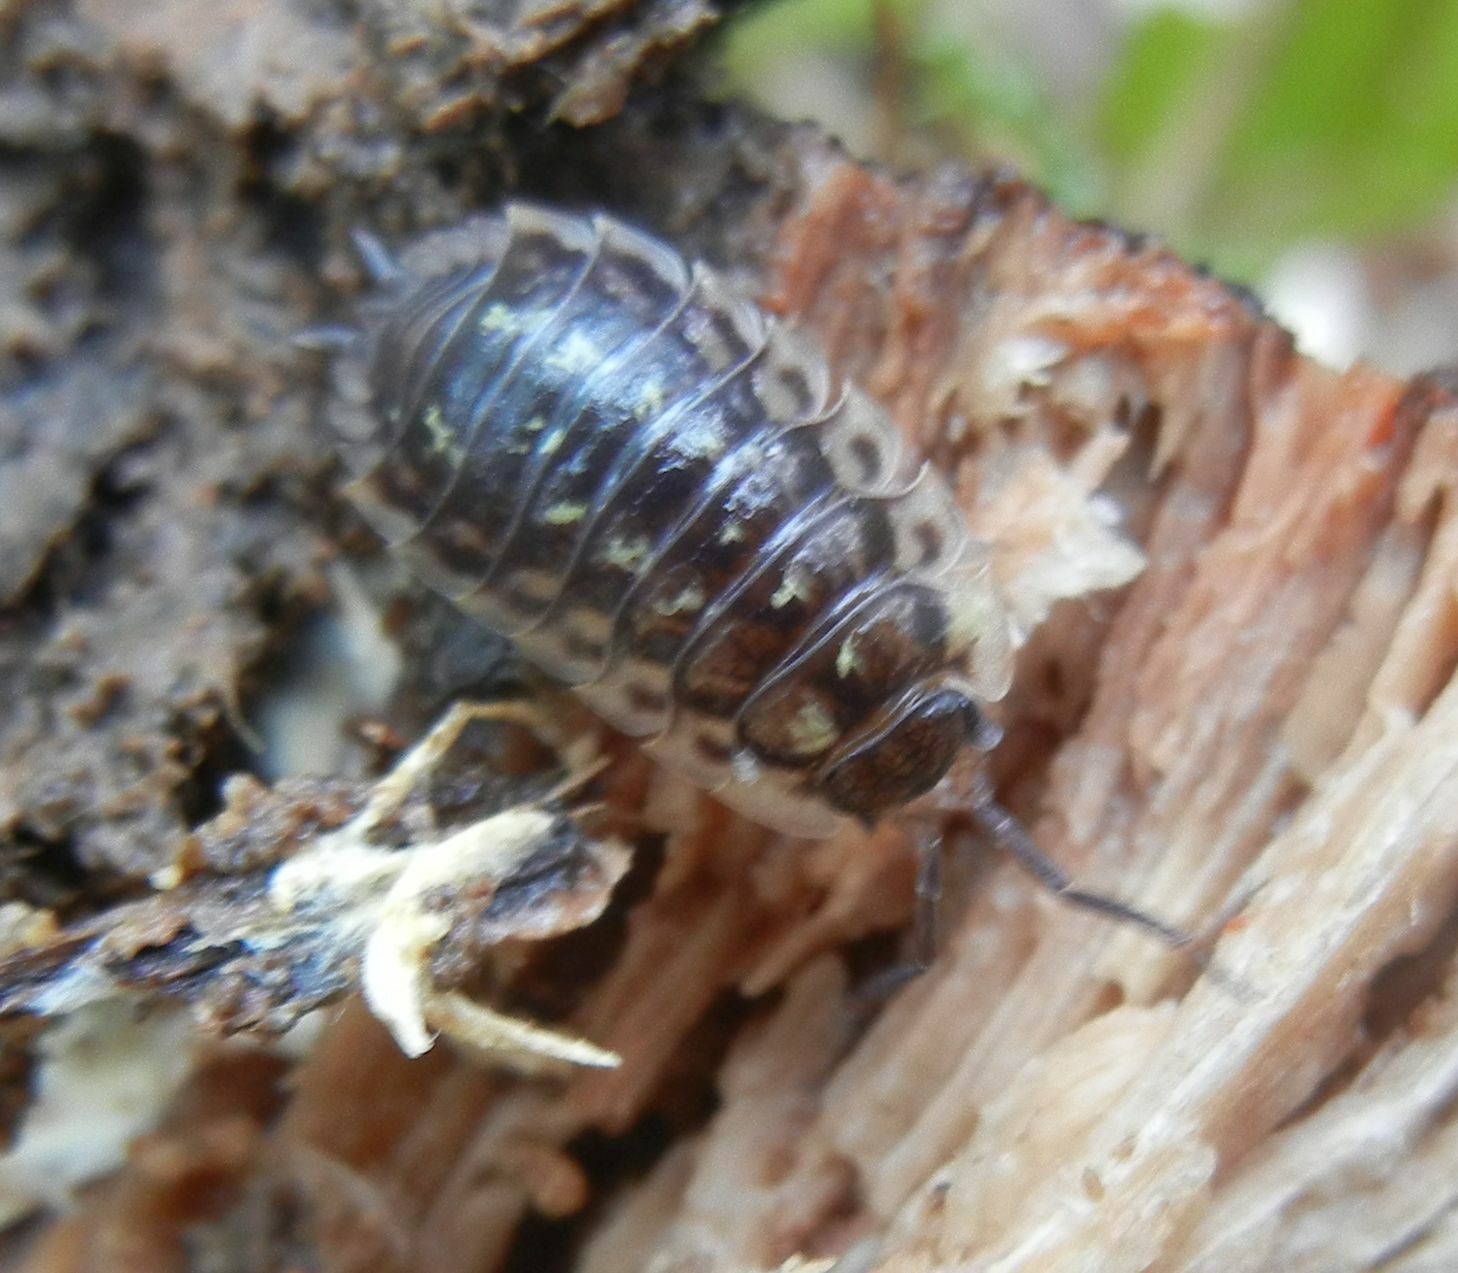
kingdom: Animalia
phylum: Arthropoda
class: Malacostraca
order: Isopoda
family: Oniscidae
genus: Oniscus
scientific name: Oniscus asellus
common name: Common shiny woodlouse
